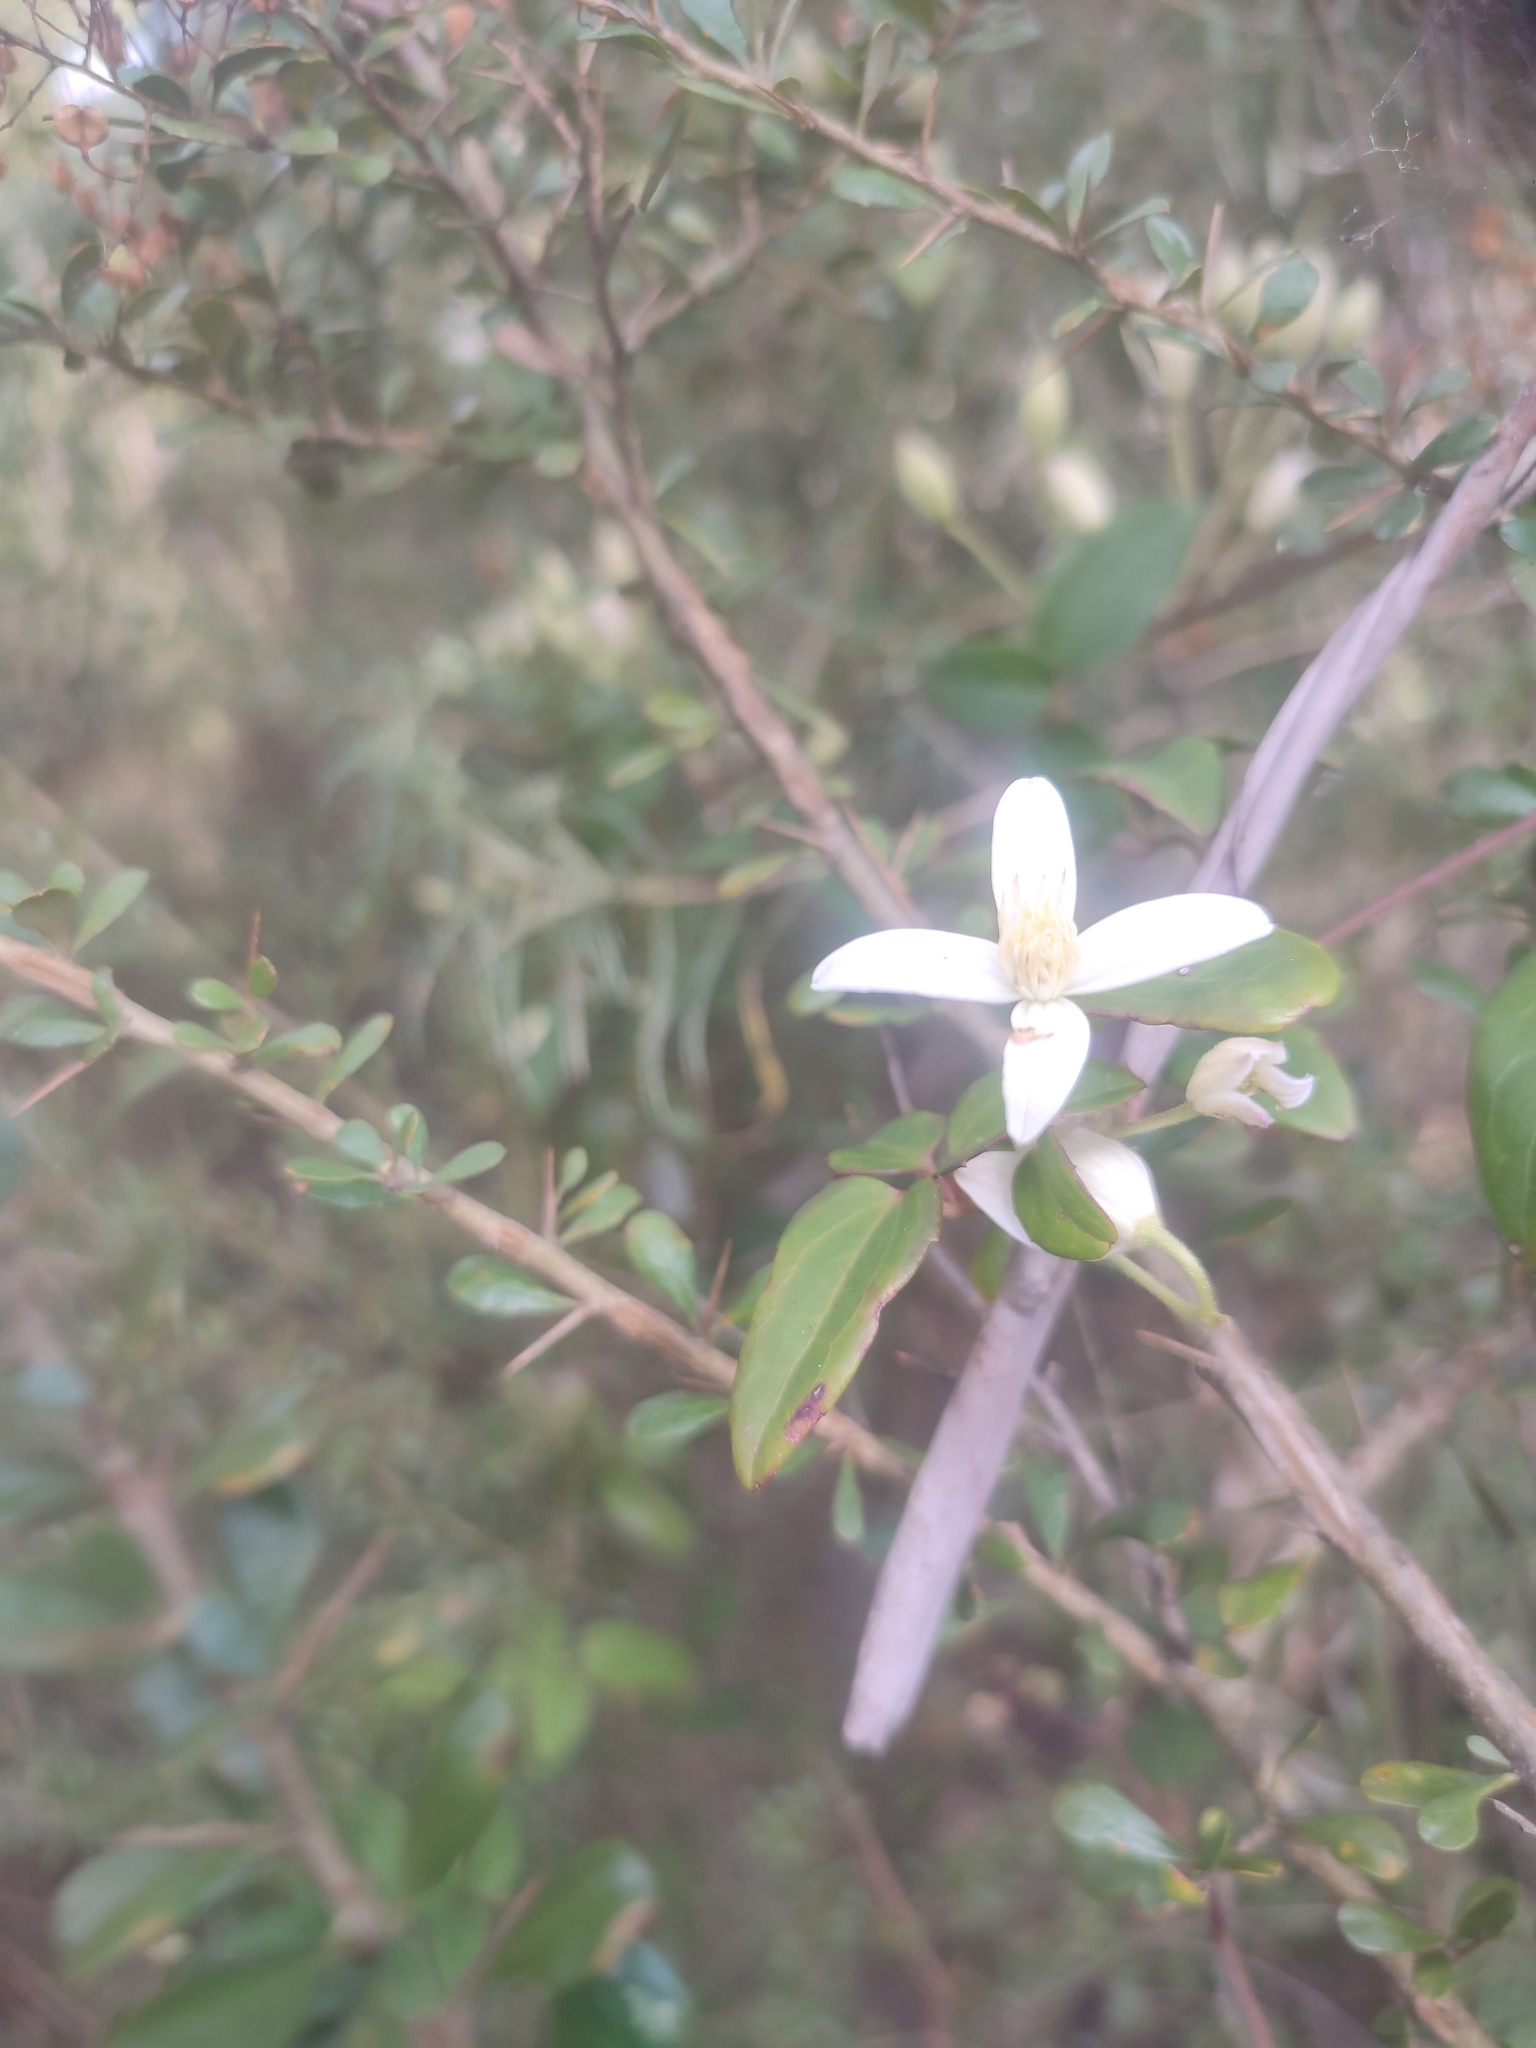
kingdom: Plantae
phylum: Tracheophyta
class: Magnoliopsida
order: Ranunculales
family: Ranunculaceae
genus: Clematis
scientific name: Clematis aristata
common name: Mountain clematis
